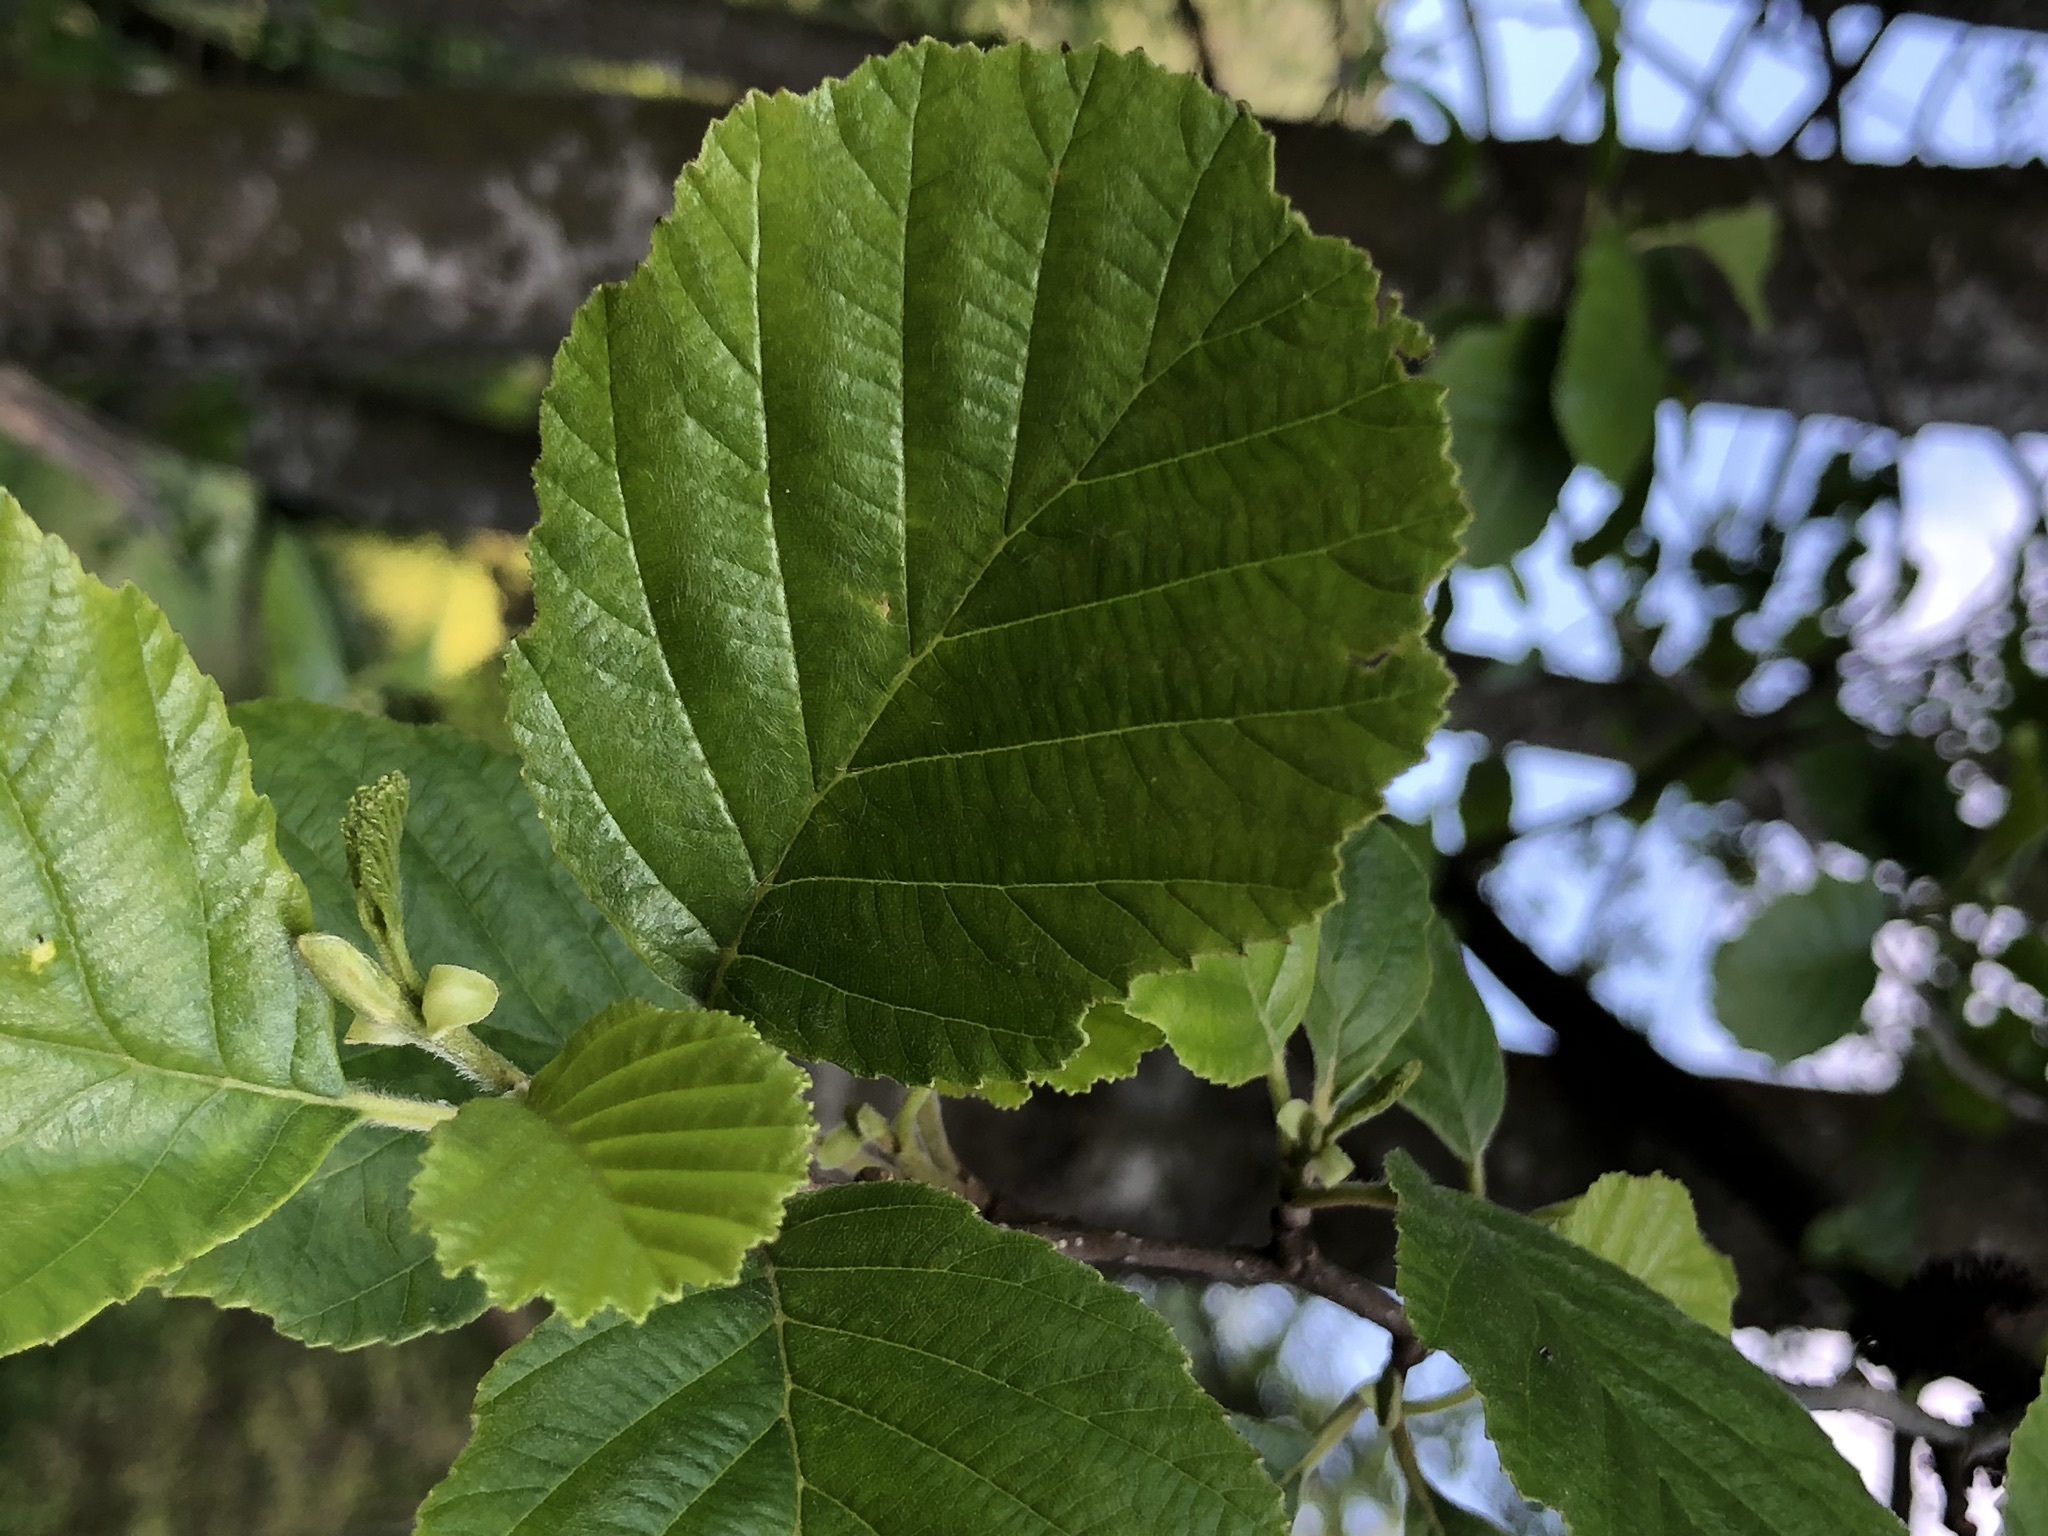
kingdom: Plantae
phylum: Tracheophyta
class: Magnoliopsida
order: Fagales
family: Betulaceae
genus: Alnus
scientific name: Alnus glutinosa
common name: Black alder
